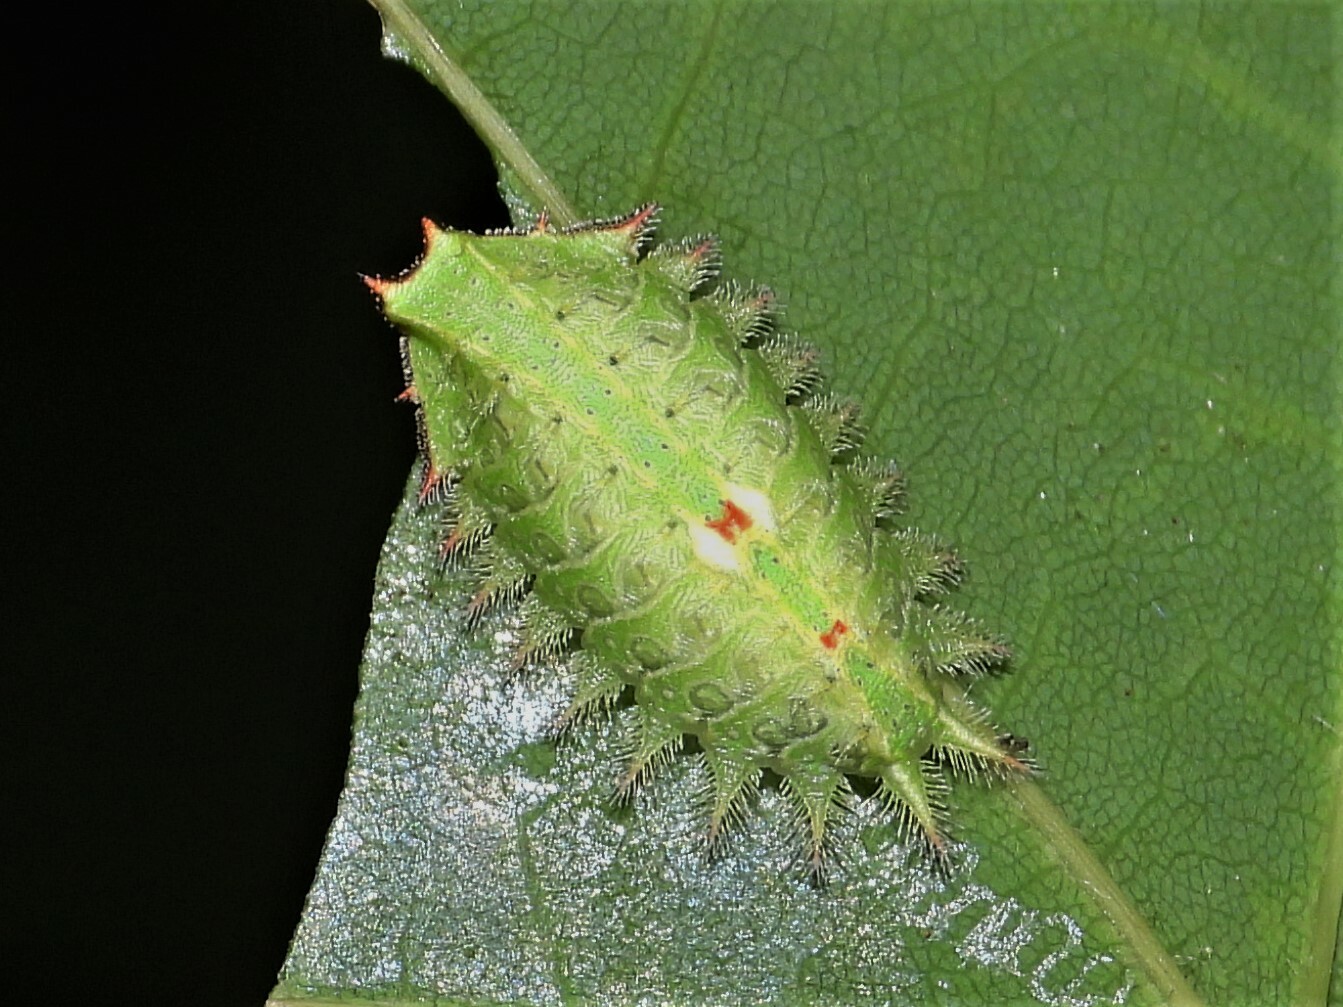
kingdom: Animalia
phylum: Arthropoda
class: Insecta
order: Lepidoptera
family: Limacodidae
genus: Isa
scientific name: Isa textula
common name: Crowned slug moth
